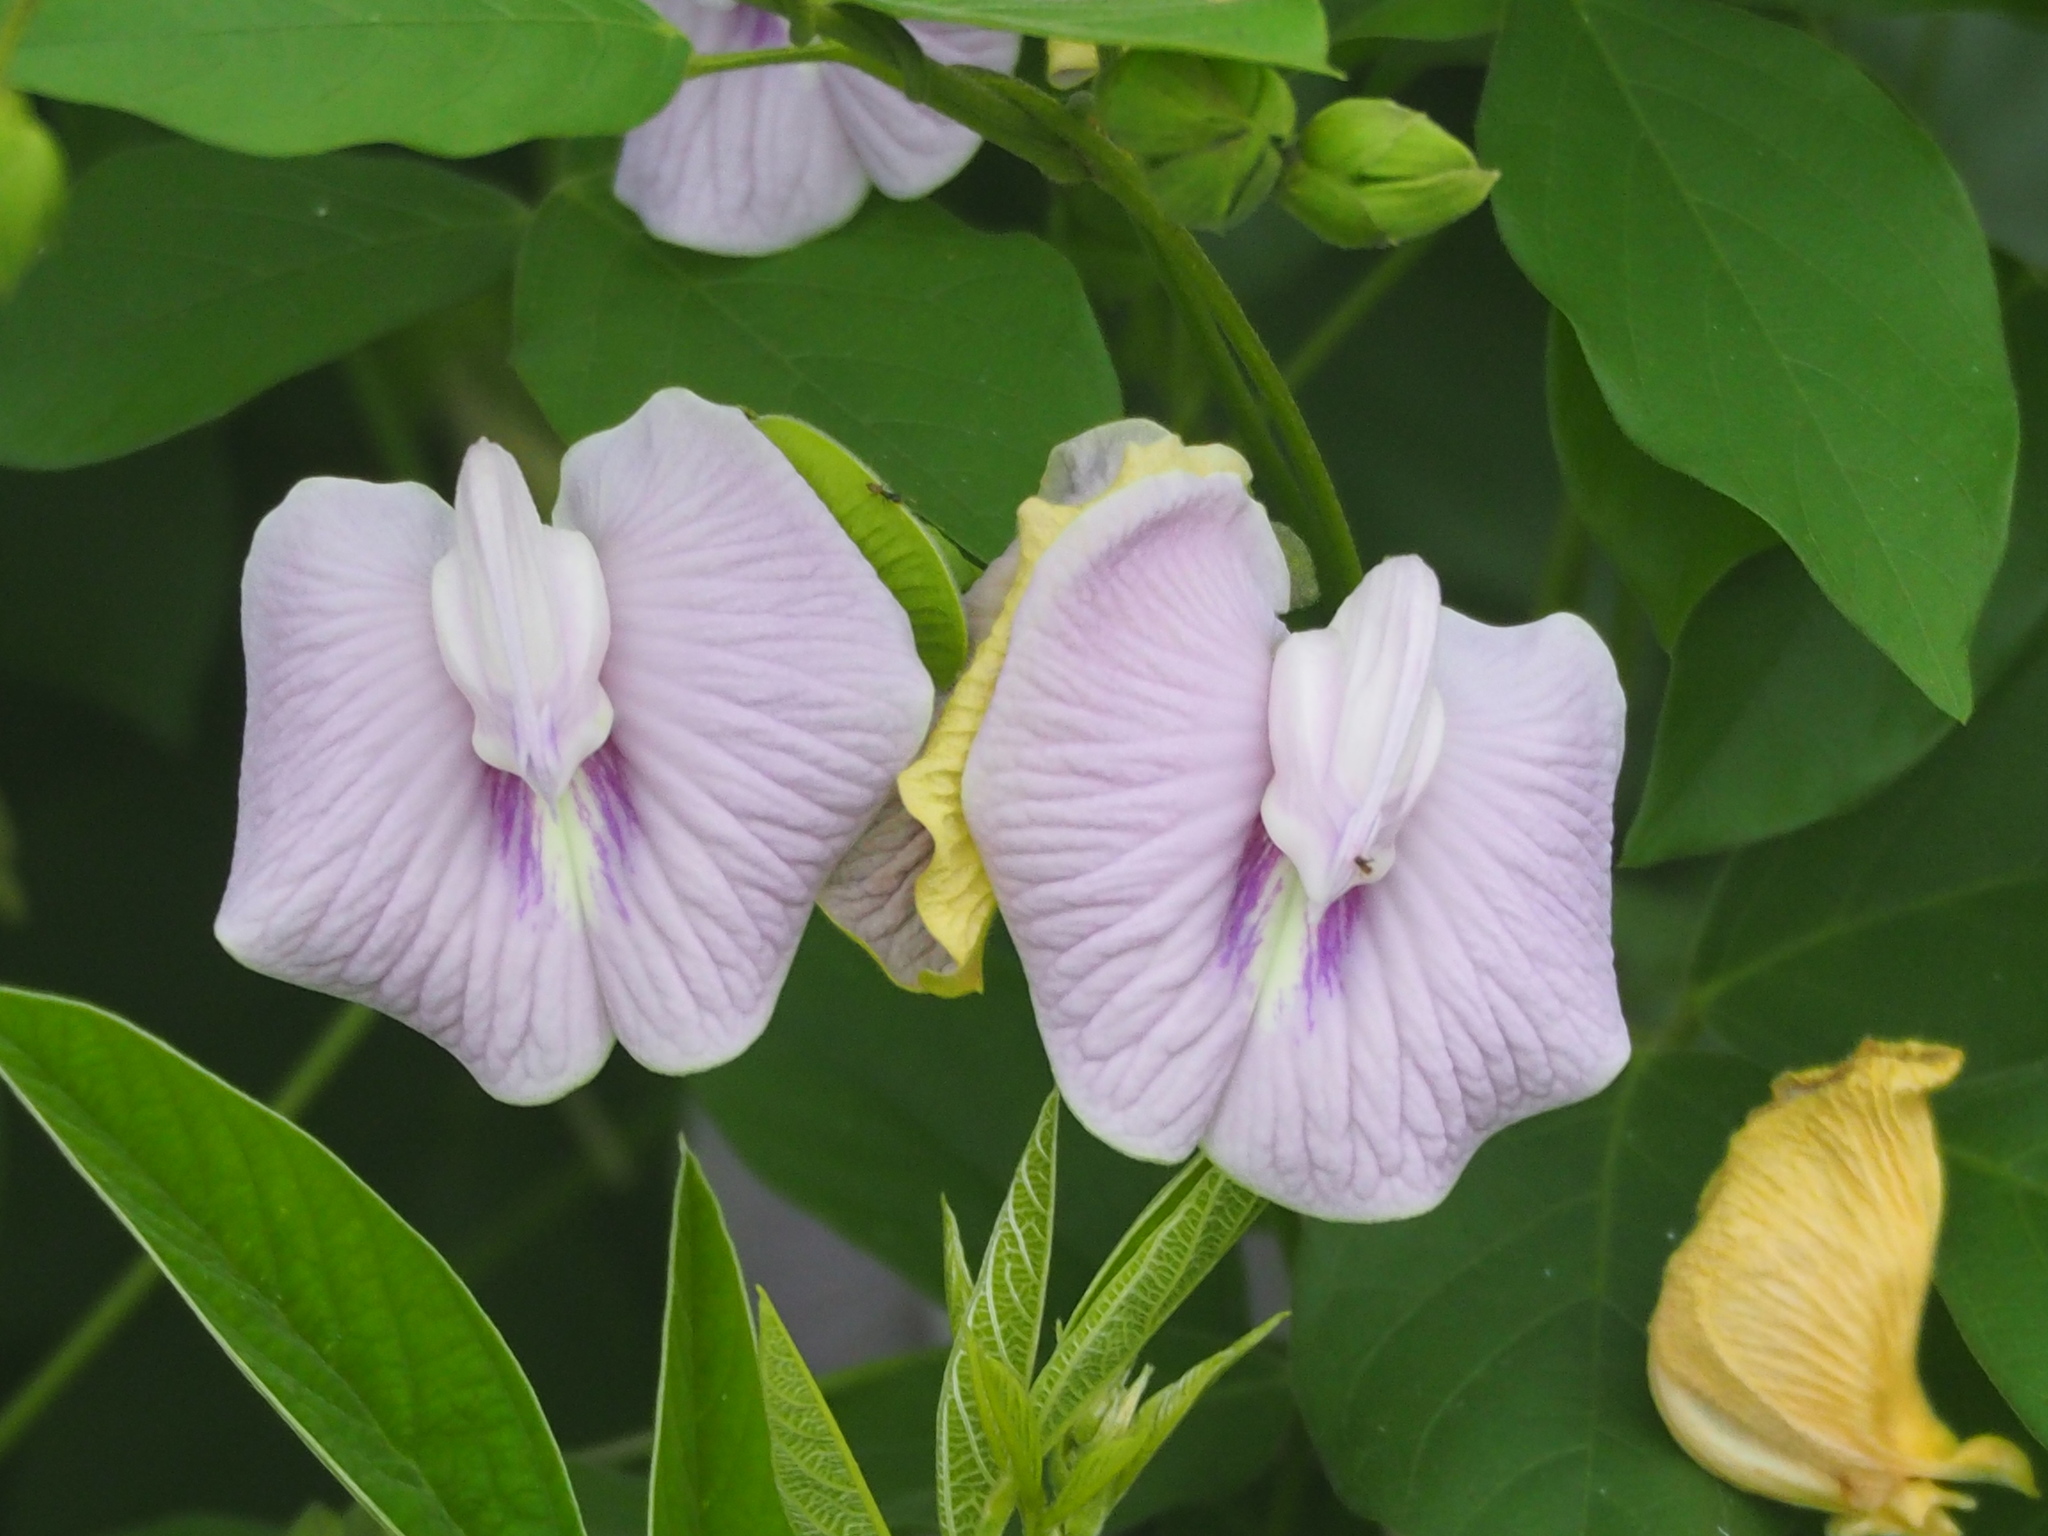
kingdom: Plantae
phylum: Tracheophyta
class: Magnoliopsida
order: Fabales
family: Fabaceae
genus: Centrosema
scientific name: Centrosema pubescens
